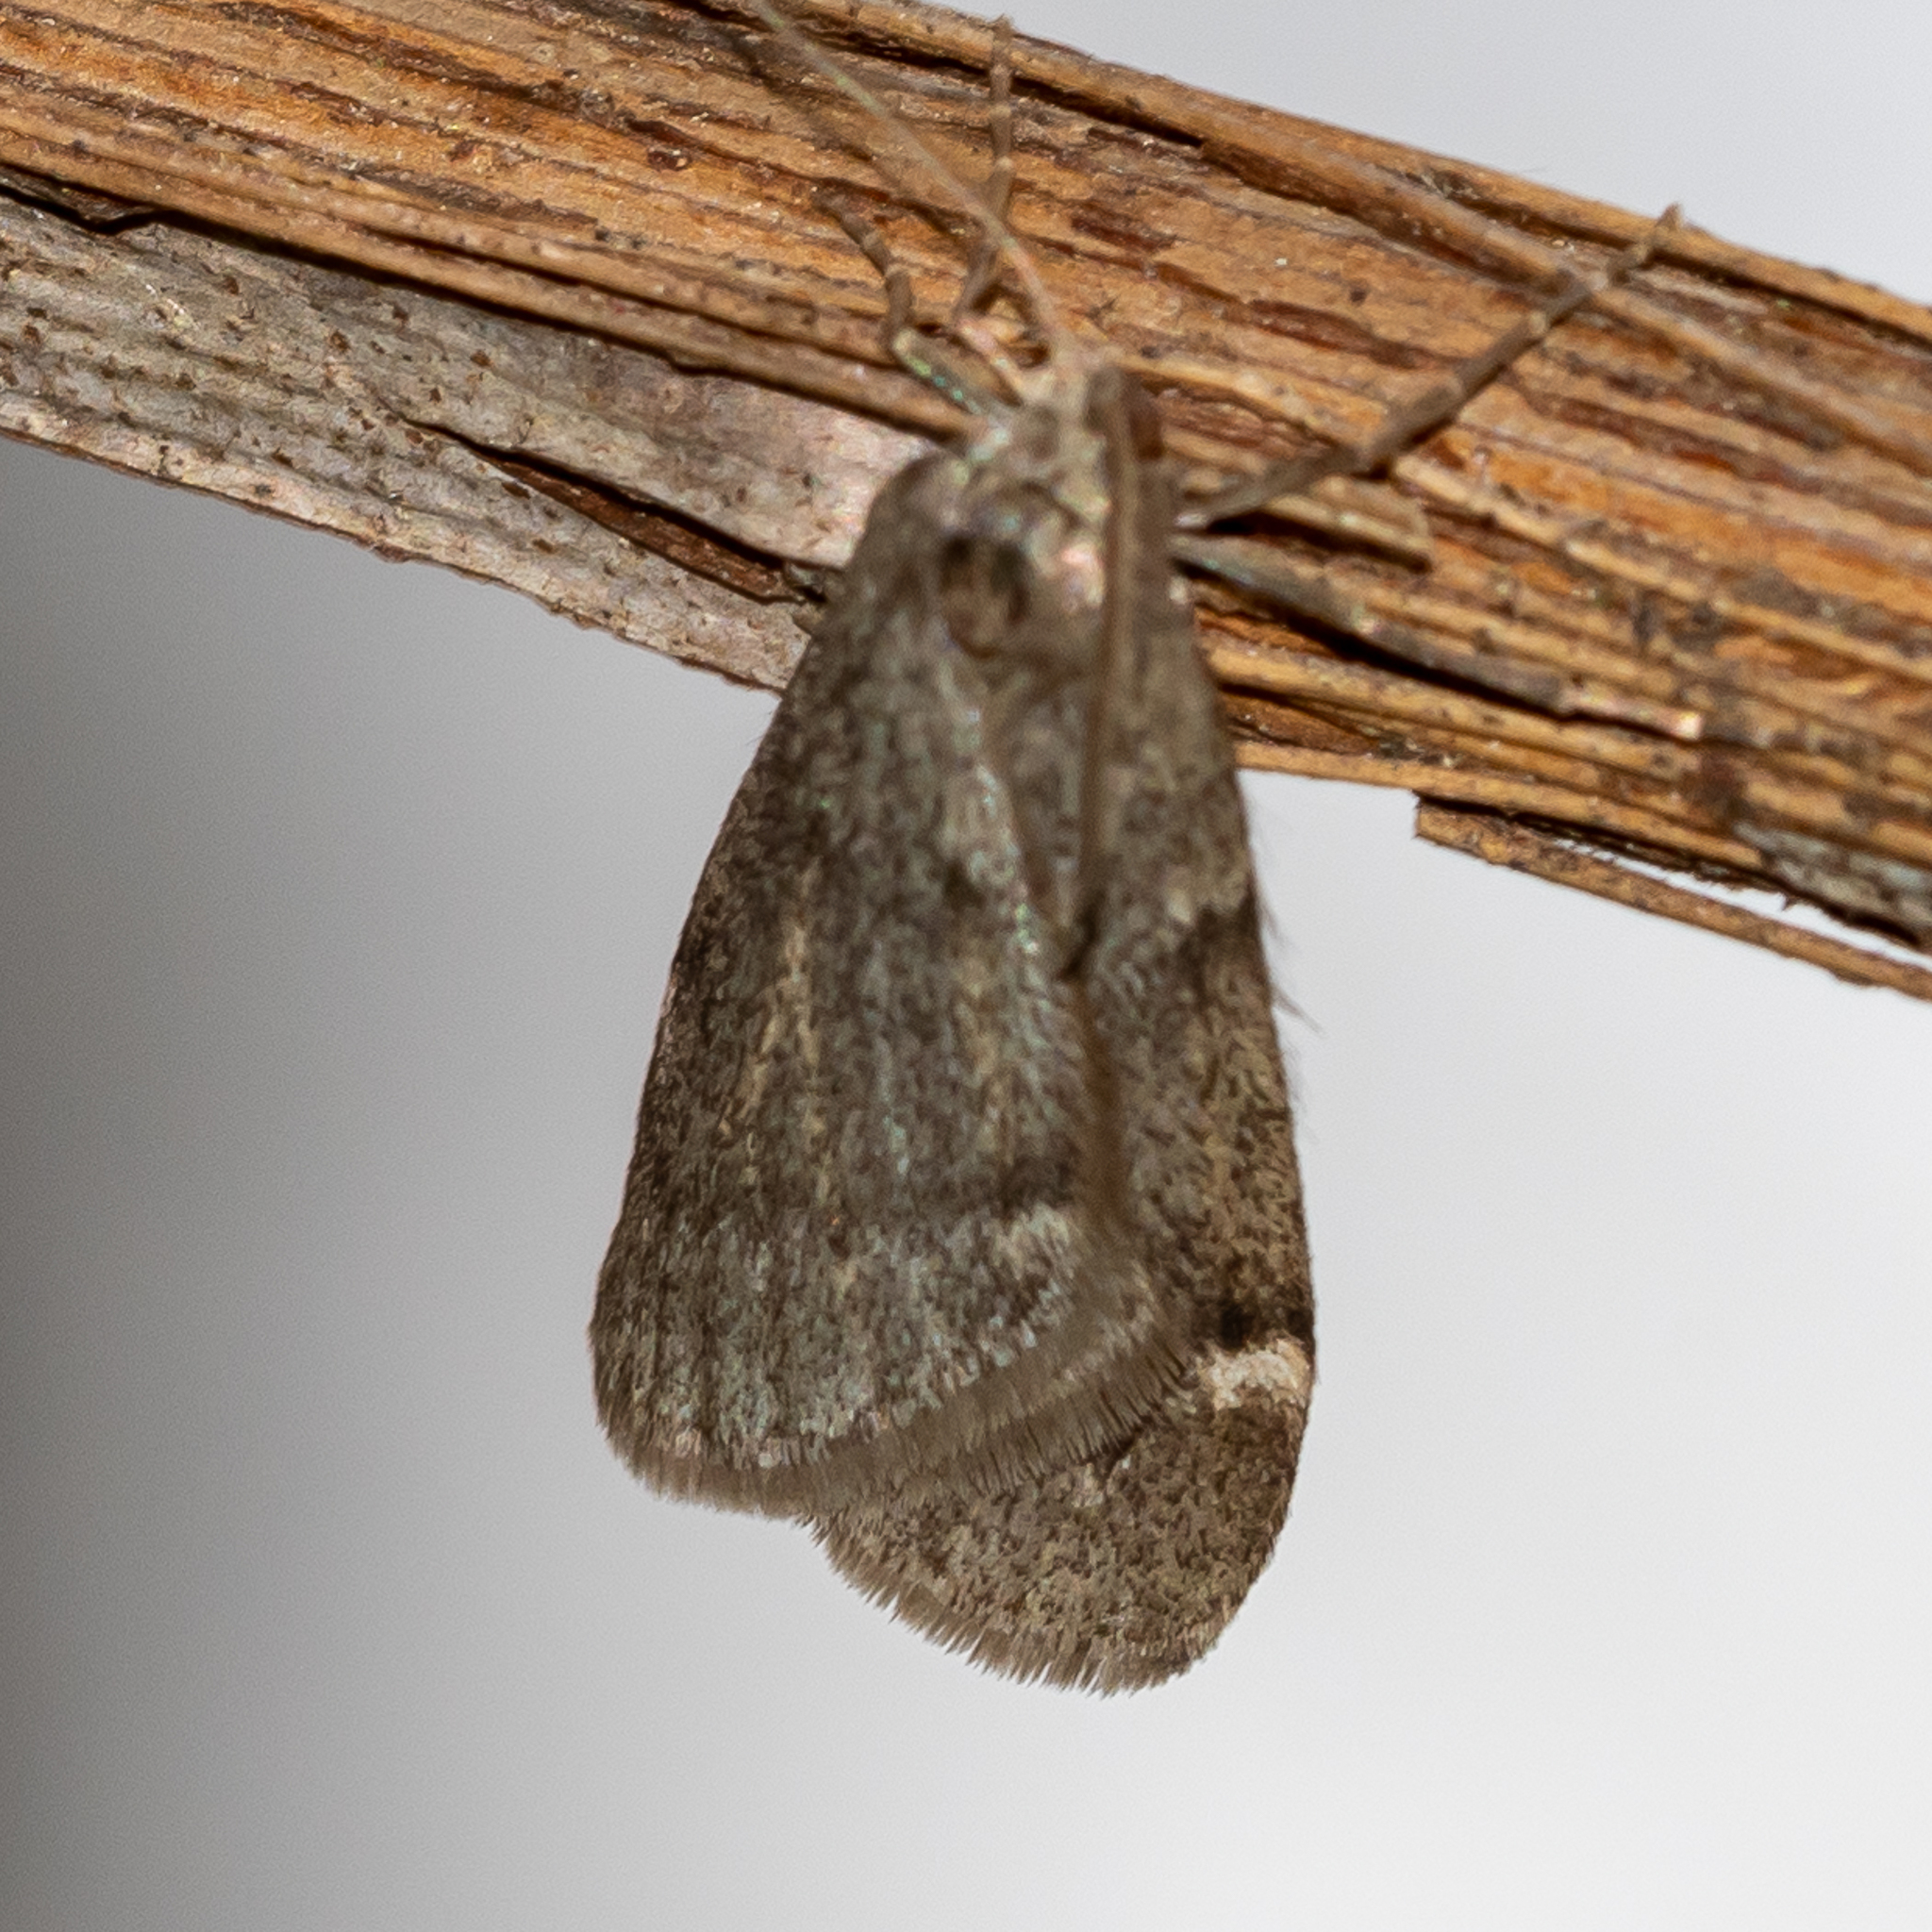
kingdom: Animalia
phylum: Arthropoda
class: Insecta
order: Lepidoptera
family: Geometridae
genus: Alsophila
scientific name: Alsophila pometaria
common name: Fall cankerworm
